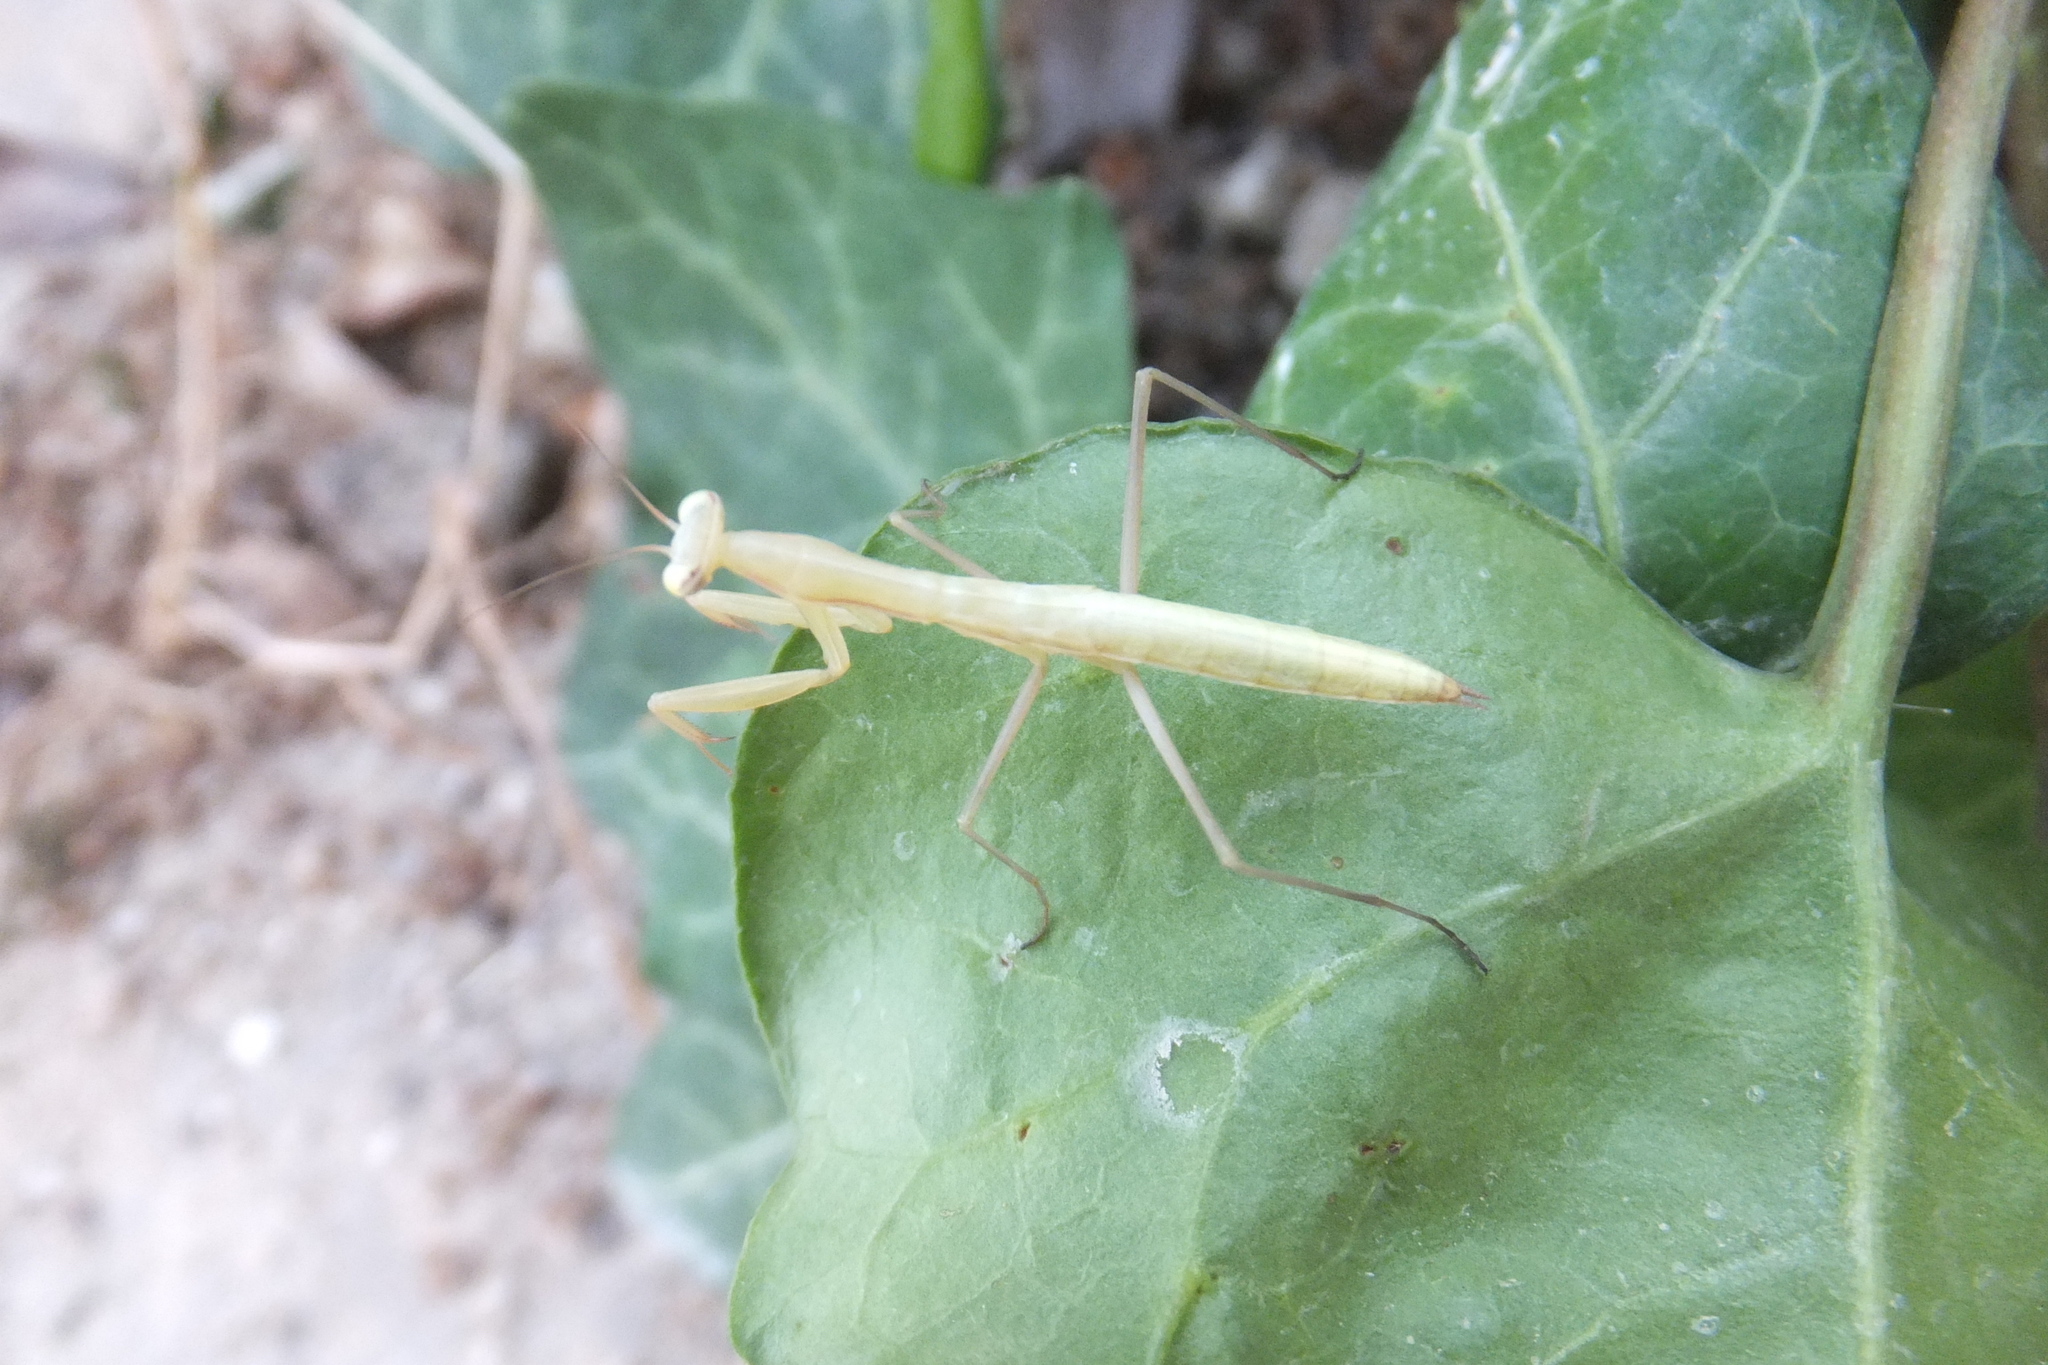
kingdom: Animalia
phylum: Arthropoda
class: Insecta
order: Mantodea
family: Mantidae
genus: Mantis
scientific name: Mantis religiosa
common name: Praying mantis
